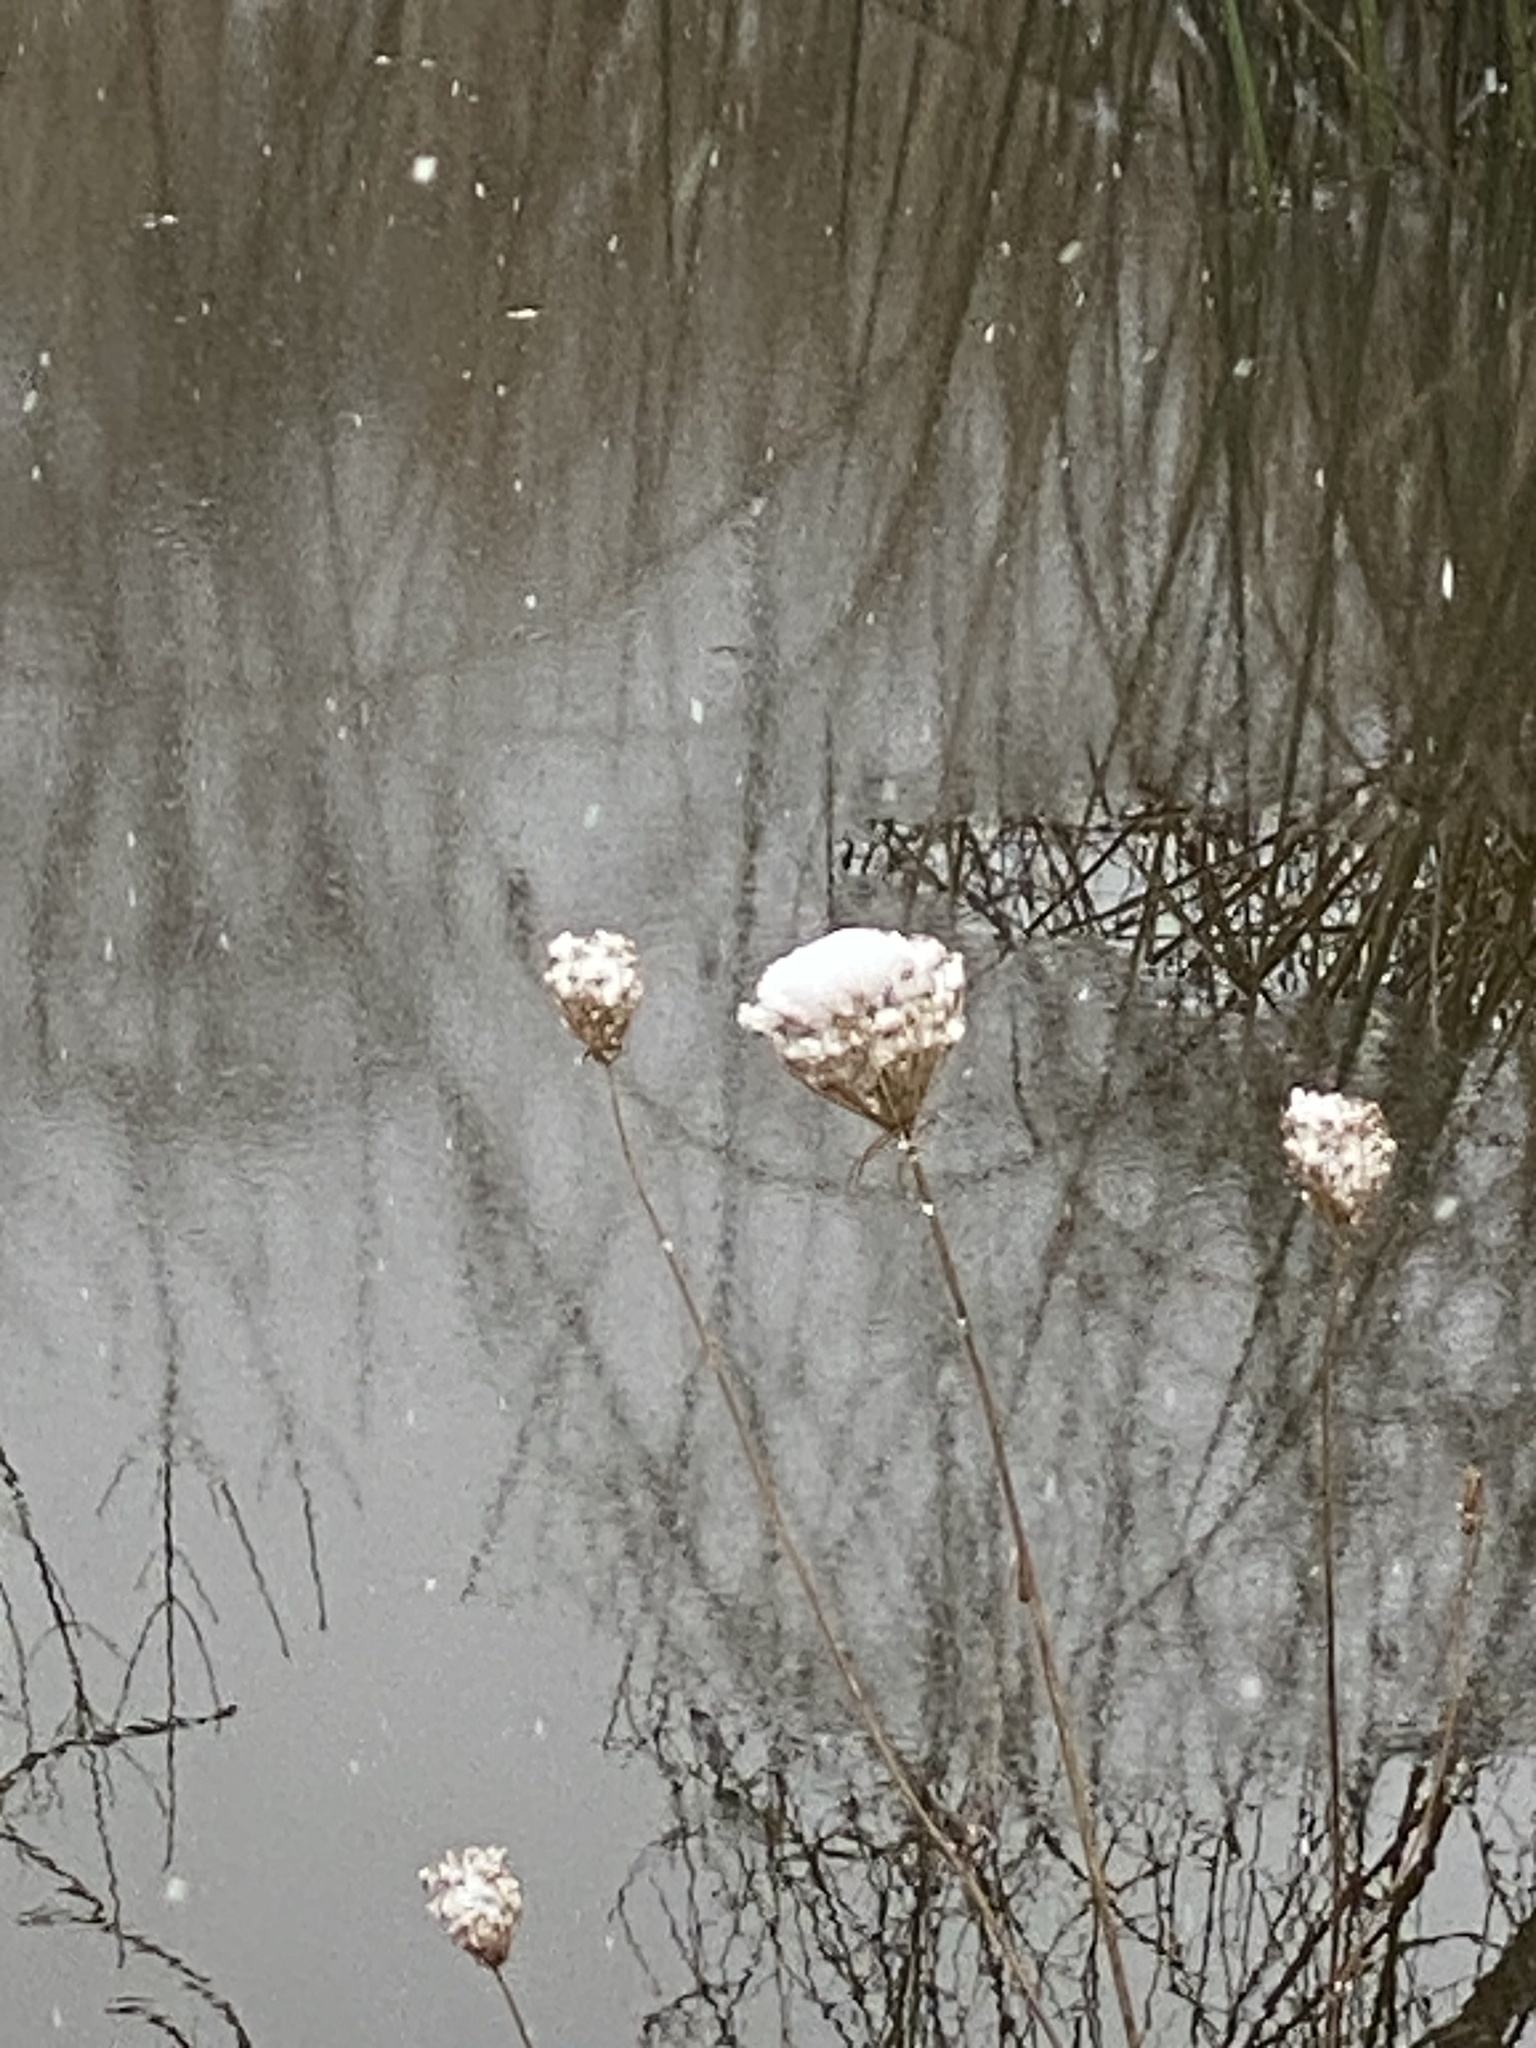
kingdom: Plantae
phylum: Tracheophyta
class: Magnoliopsida
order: Apiales
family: Apiaceae
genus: Daucus
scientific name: Daucus carota
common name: Wild carrot
